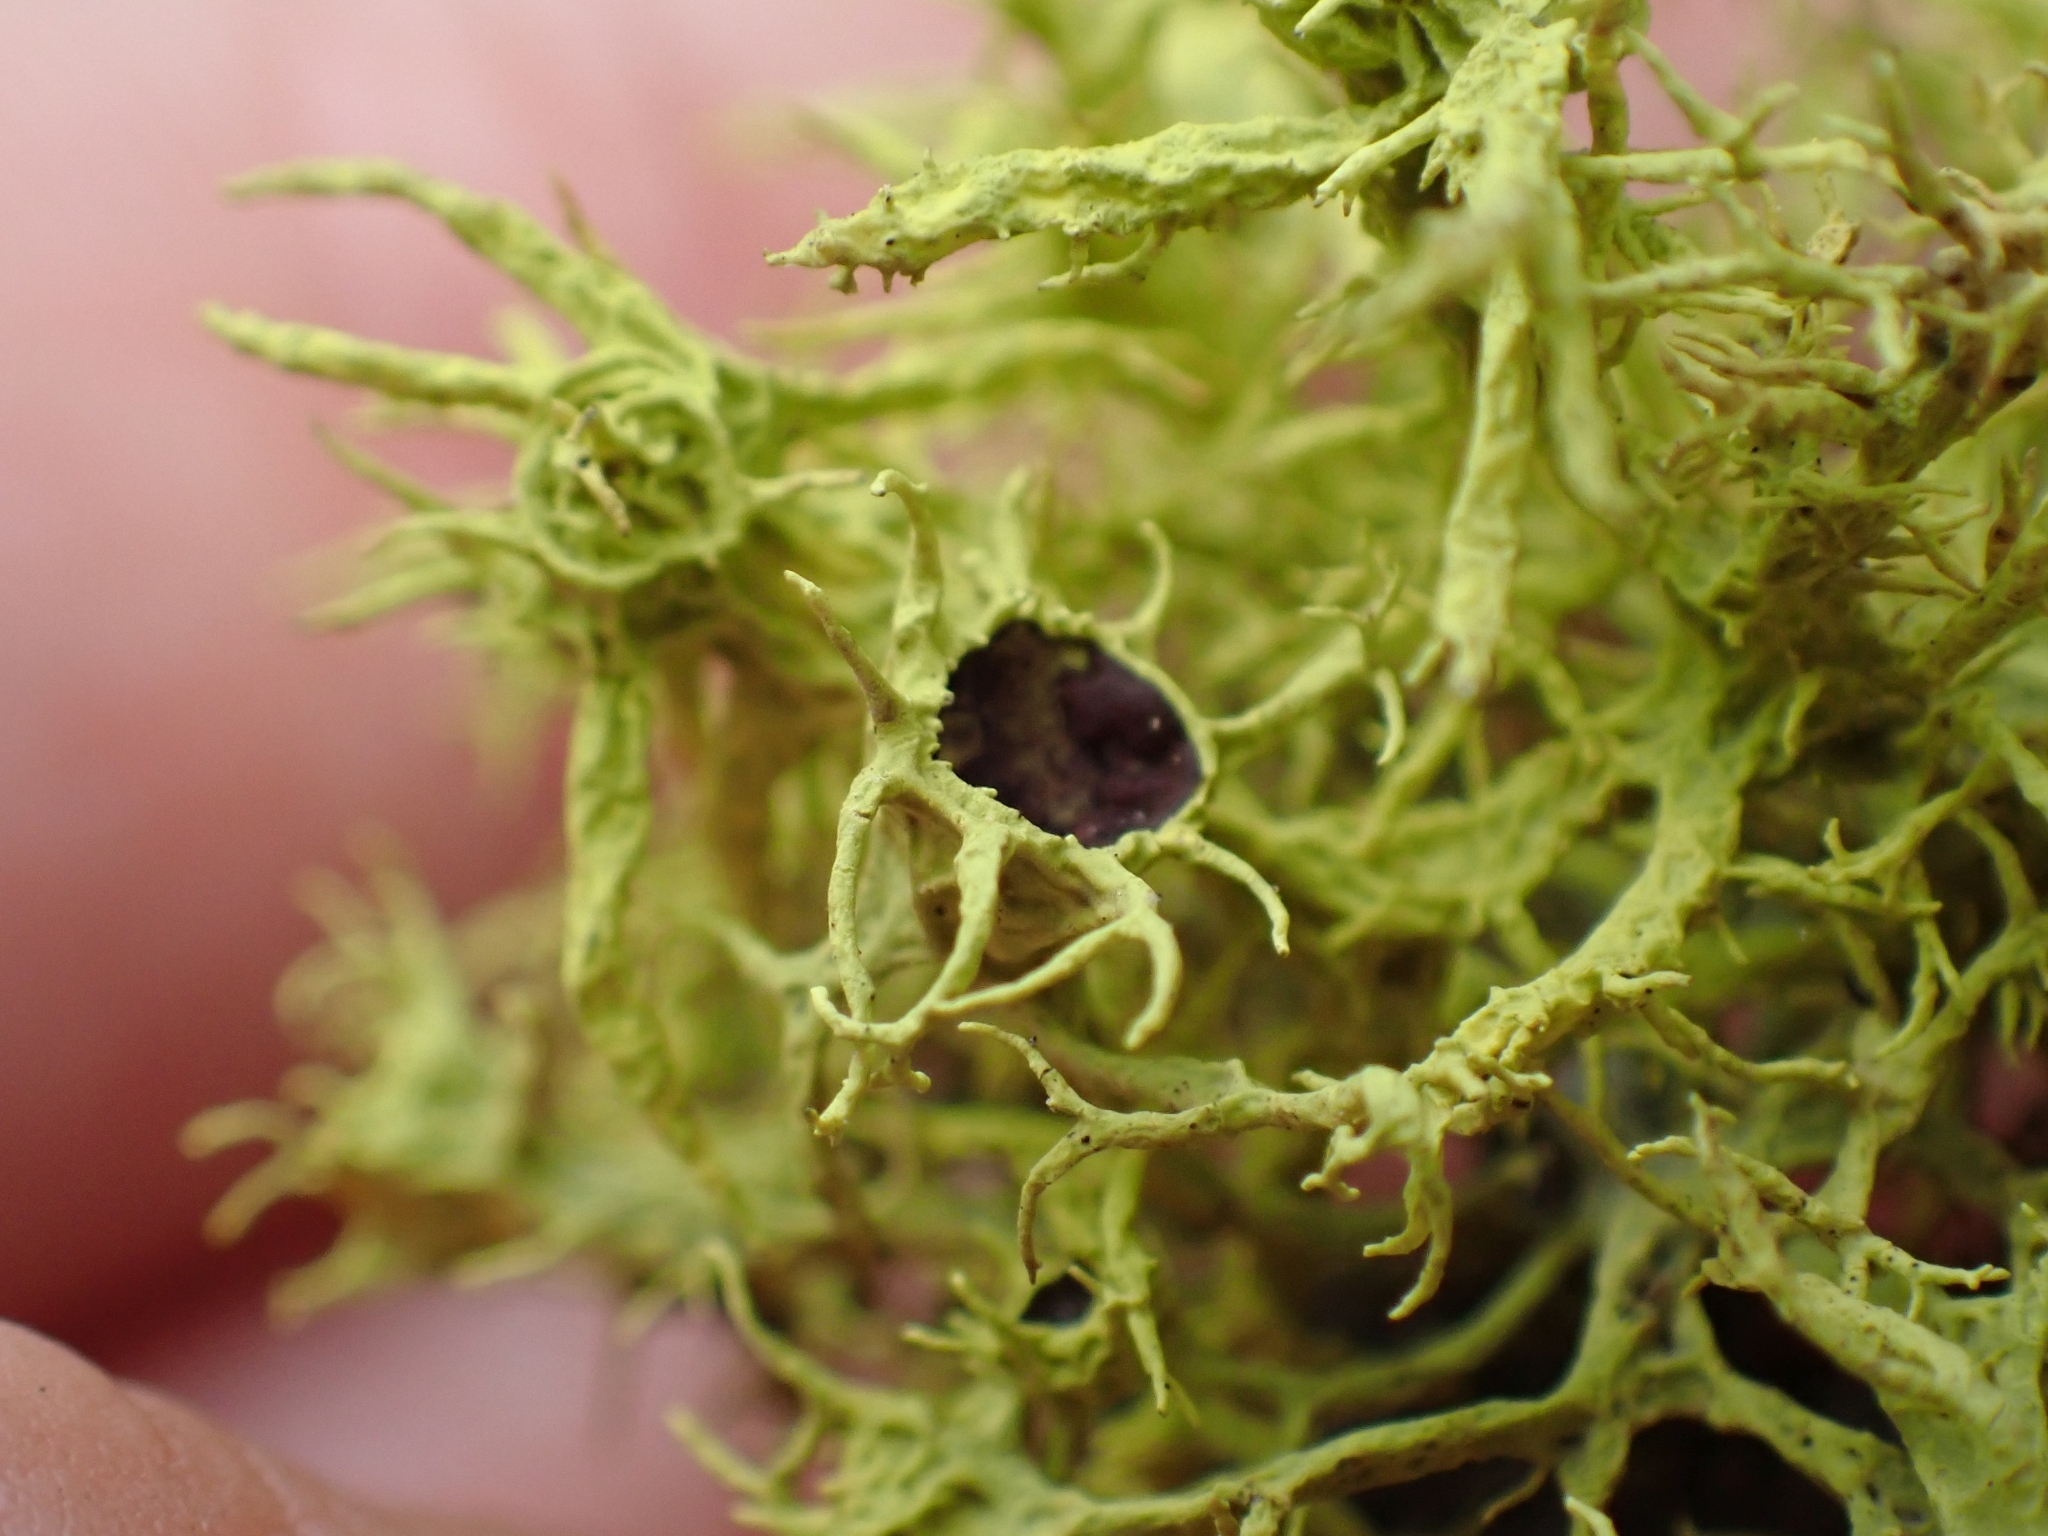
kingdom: Fungi
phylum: Ascomycota
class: Lecanoromycetes
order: Lecanorales
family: Parmeliaceae
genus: Letharia
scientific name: Letharia columbiana
